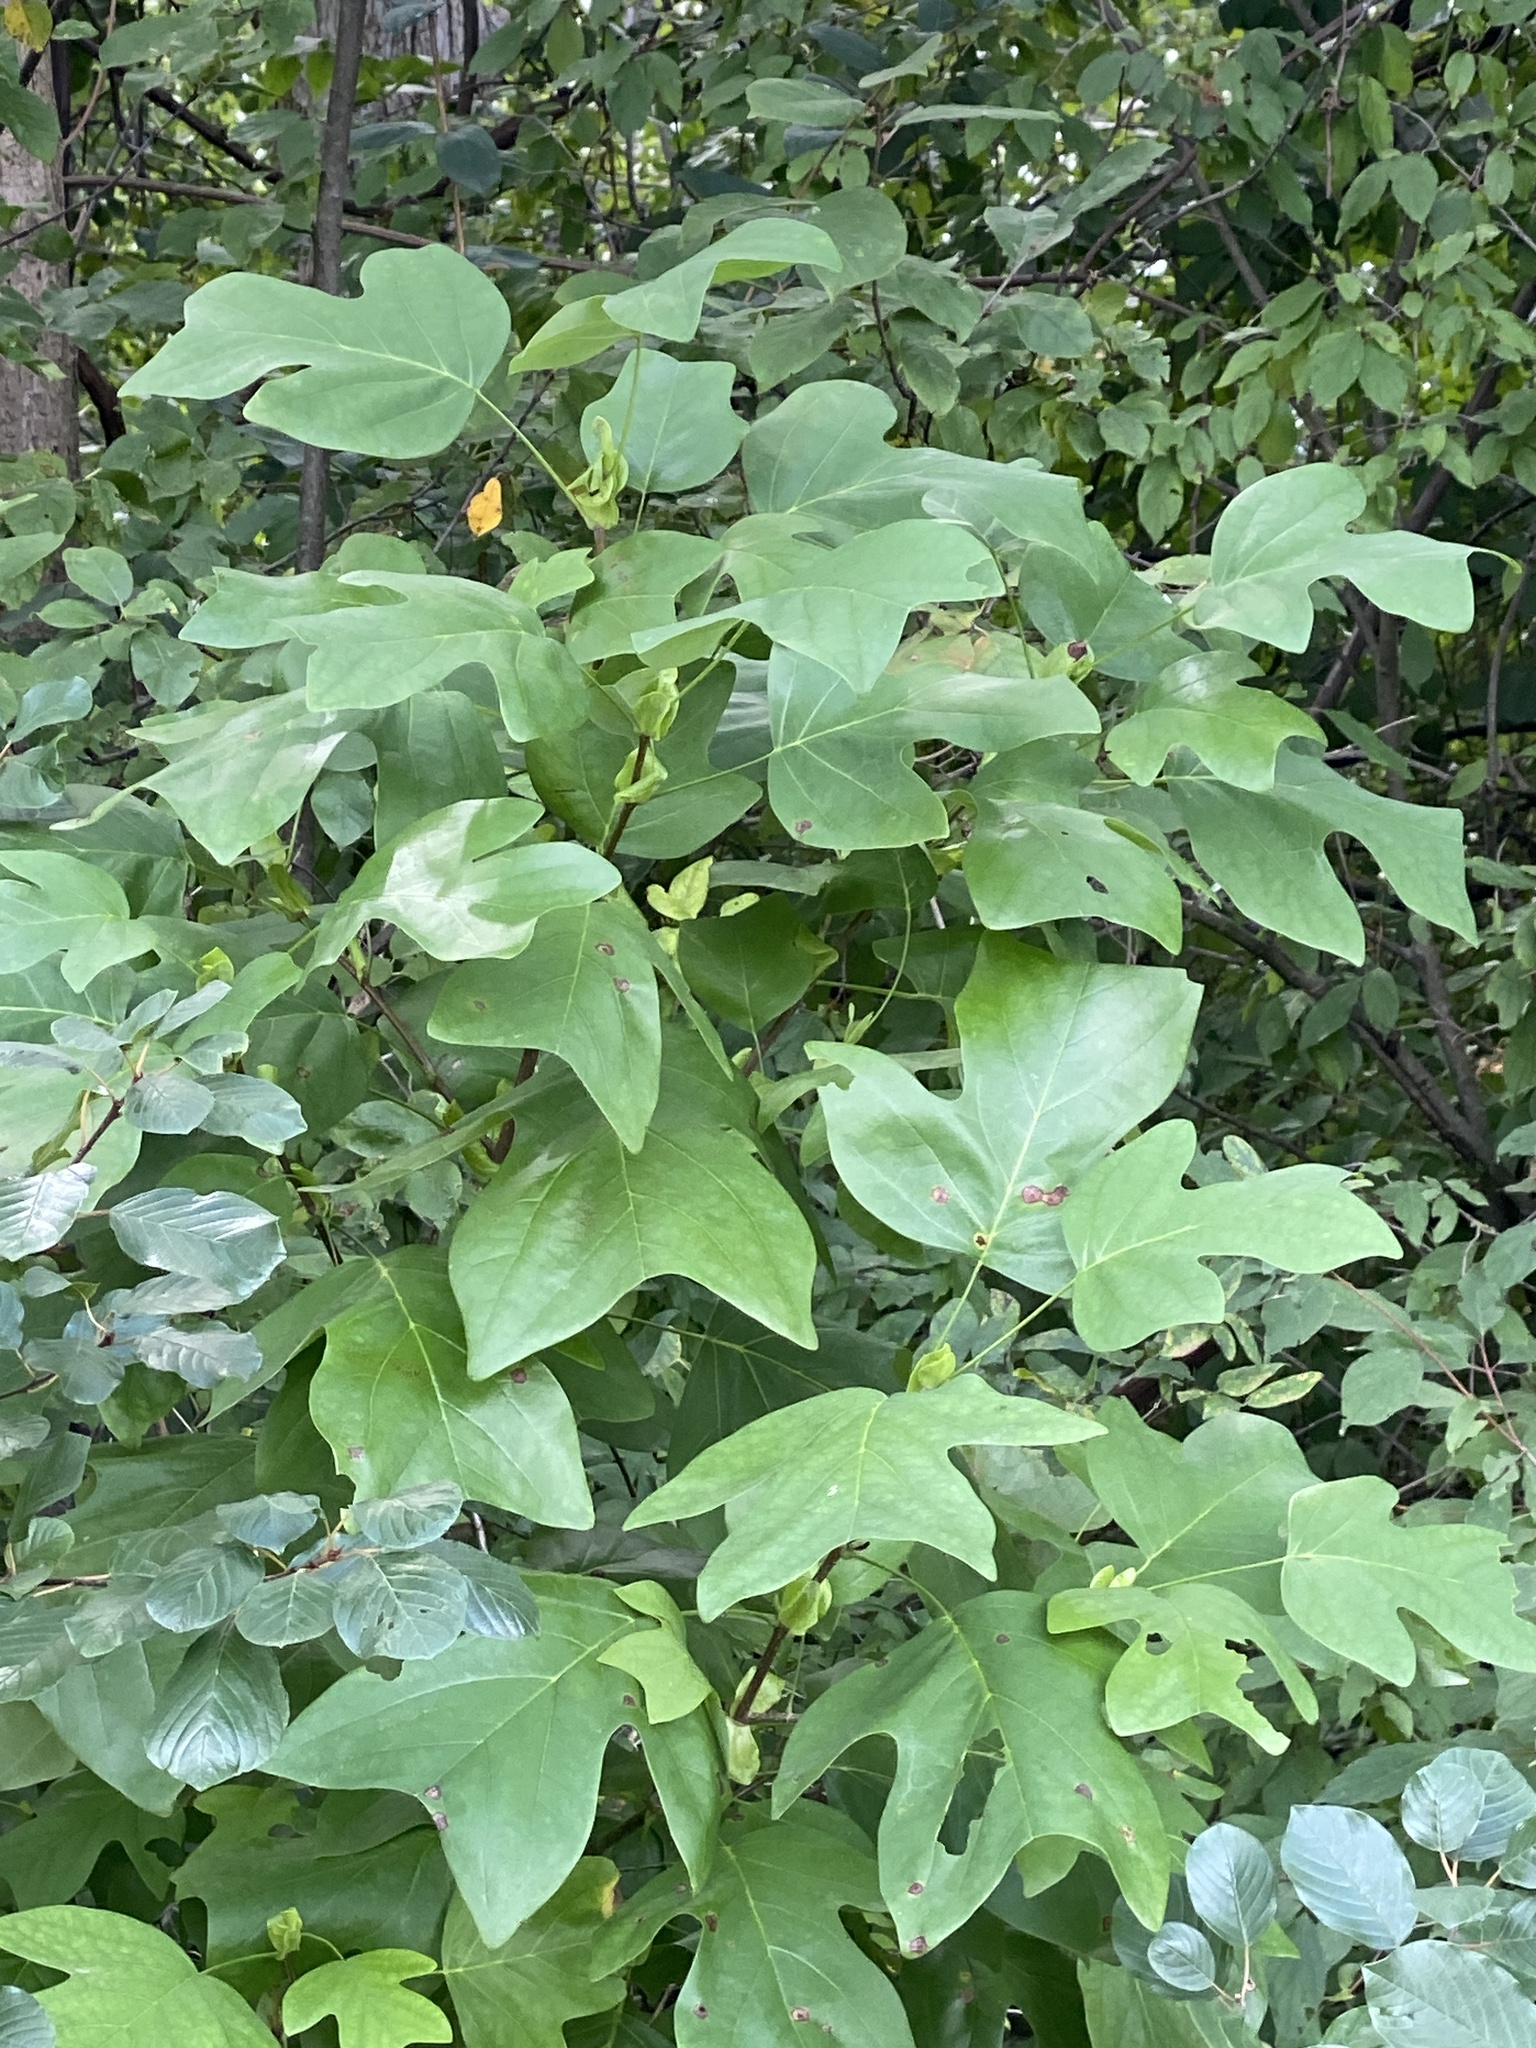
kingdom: Plantae
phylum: Tracheophyta
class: Magnoliopsida
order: Magnoliales
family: Magnoliaceae
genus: Liriodendron
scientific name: Liriodendron tulipifera
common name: Tulip tree
